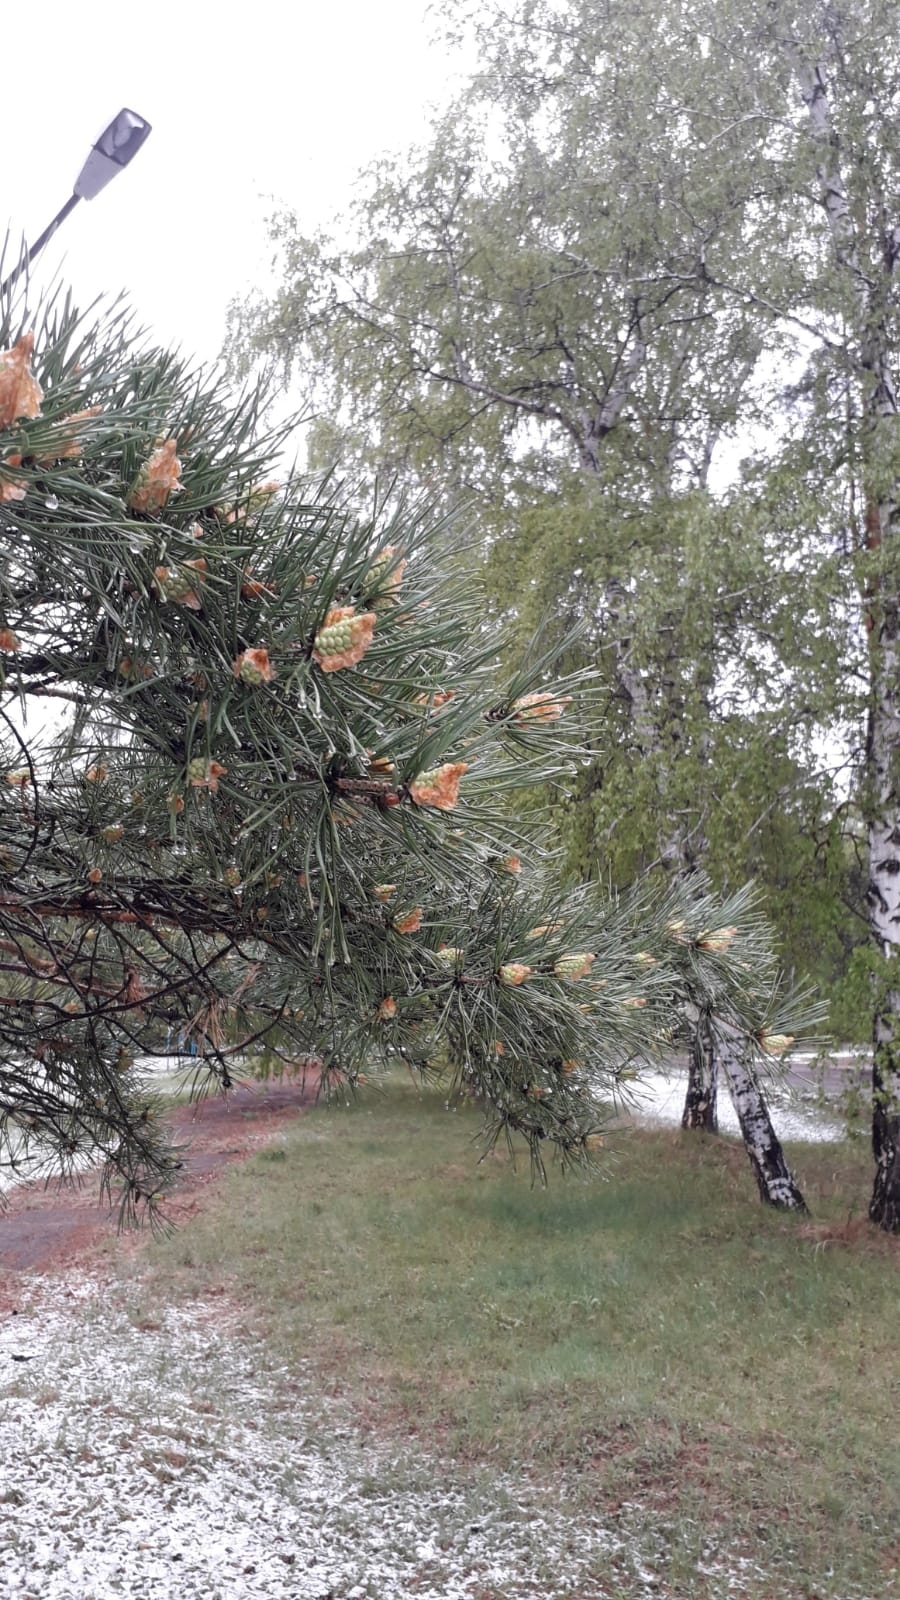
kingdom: Plantae
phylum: Tracheophyta
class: Pinopsida
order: Pinales
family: Pinaceae
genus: Pinus
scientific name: Pinus sylvestris
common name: Scots pine
